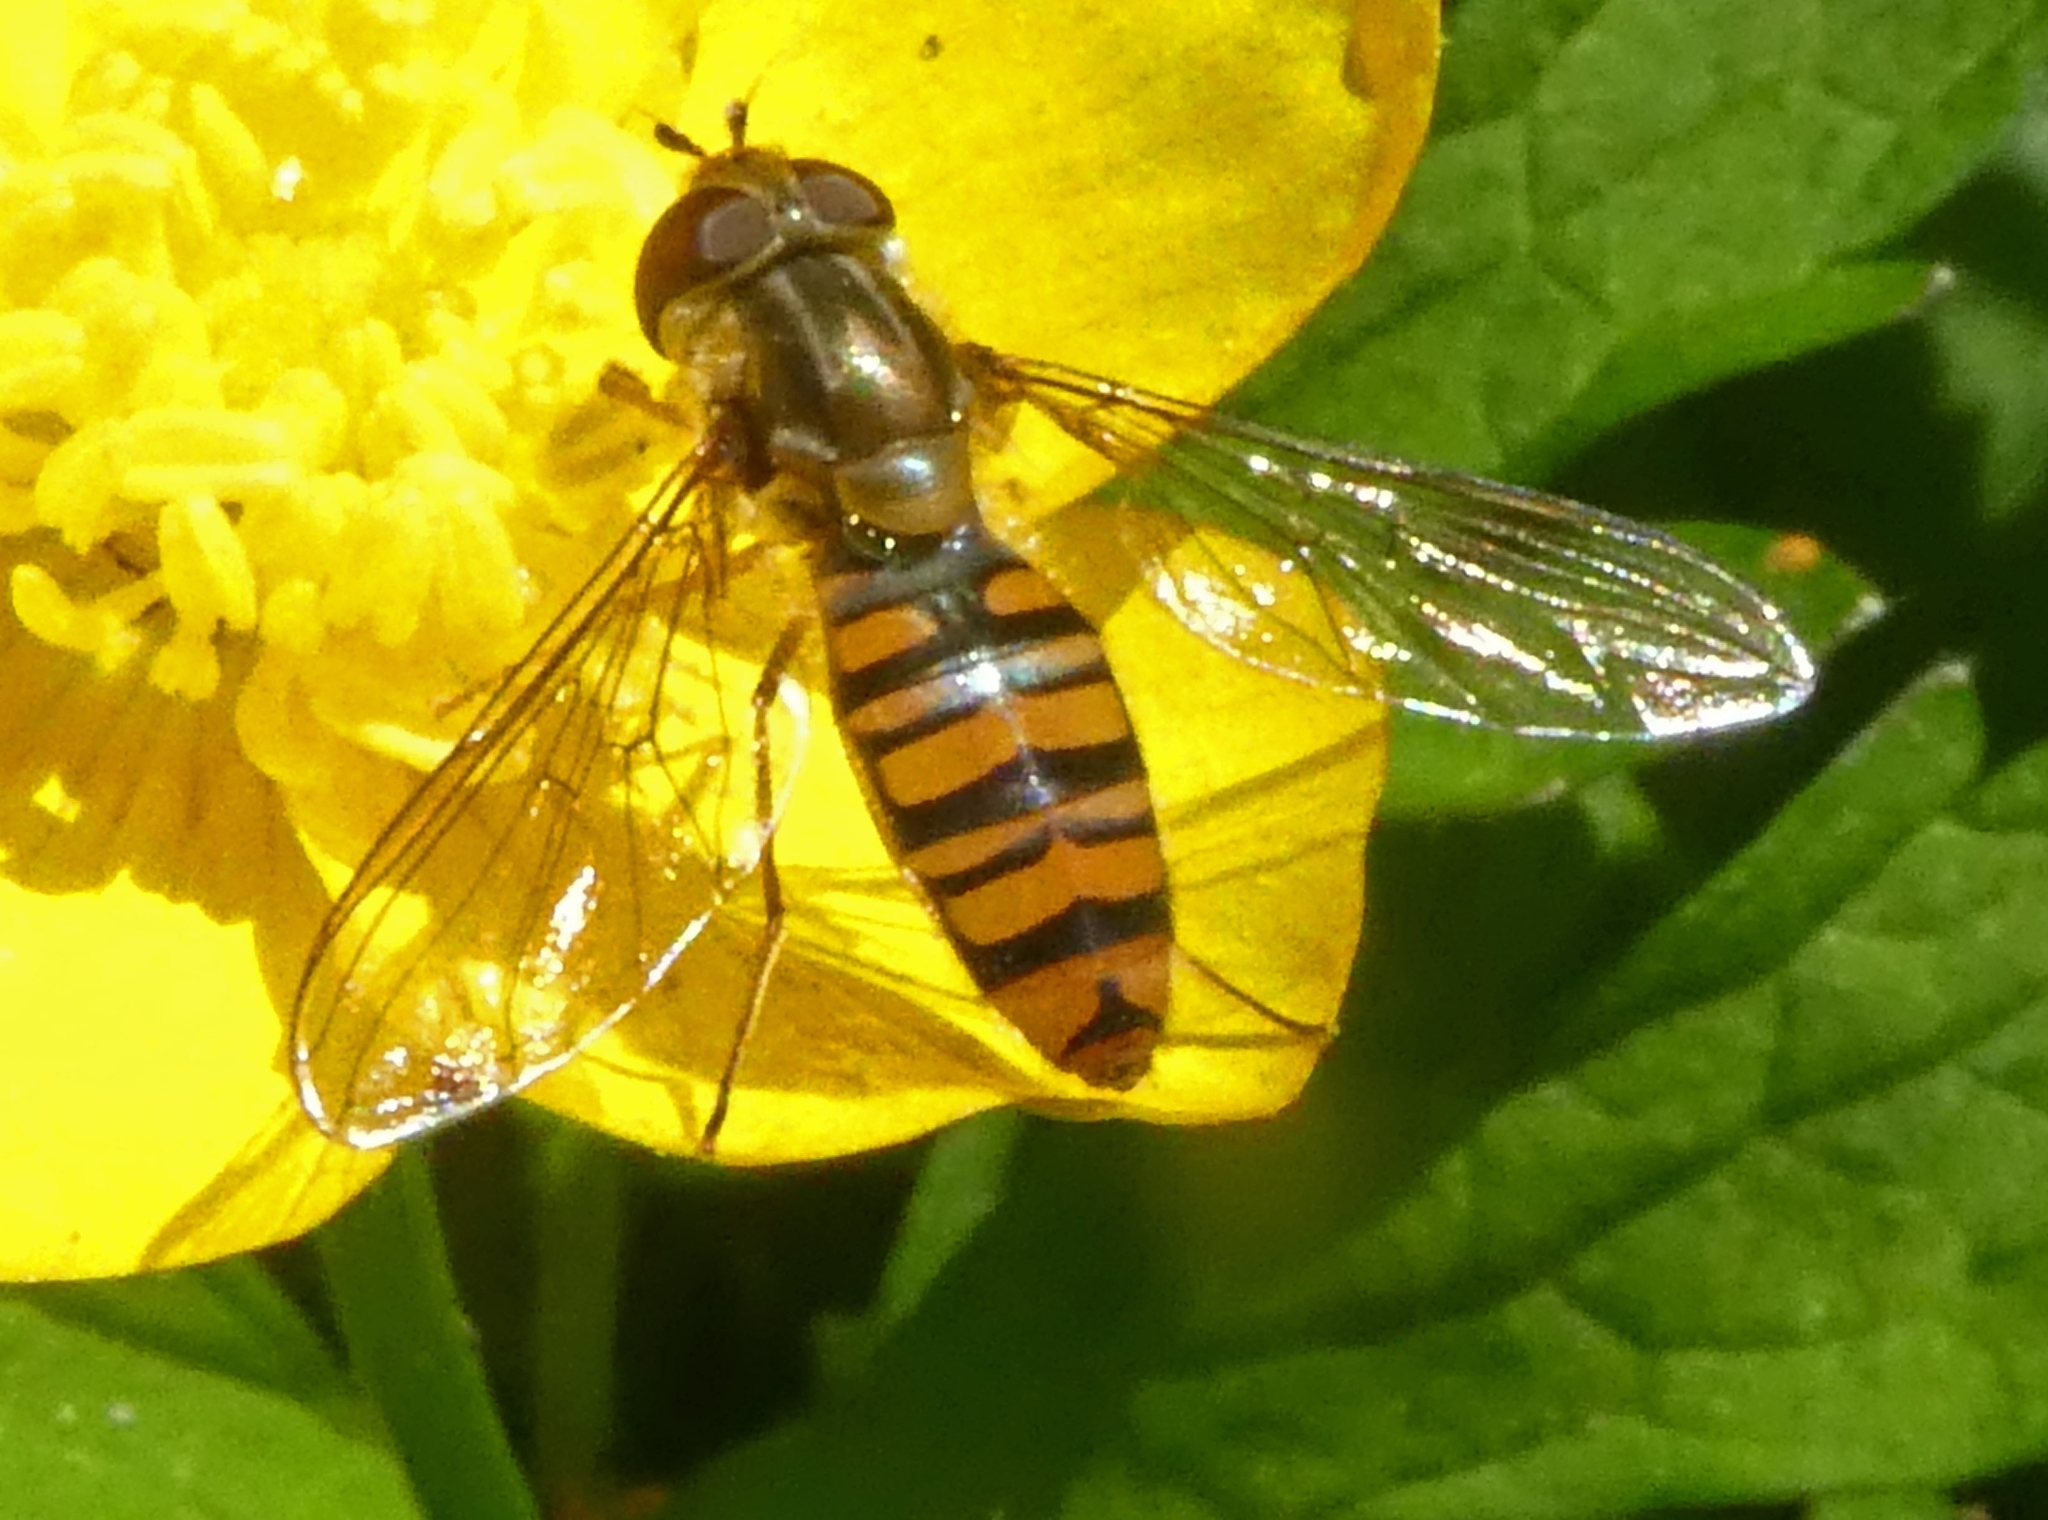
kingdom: Animalia
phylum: Arthropoda
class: Insecta
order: Diptera
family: Syrphidae
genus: Episyrphus
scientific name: Episyrphus balteatus
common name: Marmalade hoverfly
